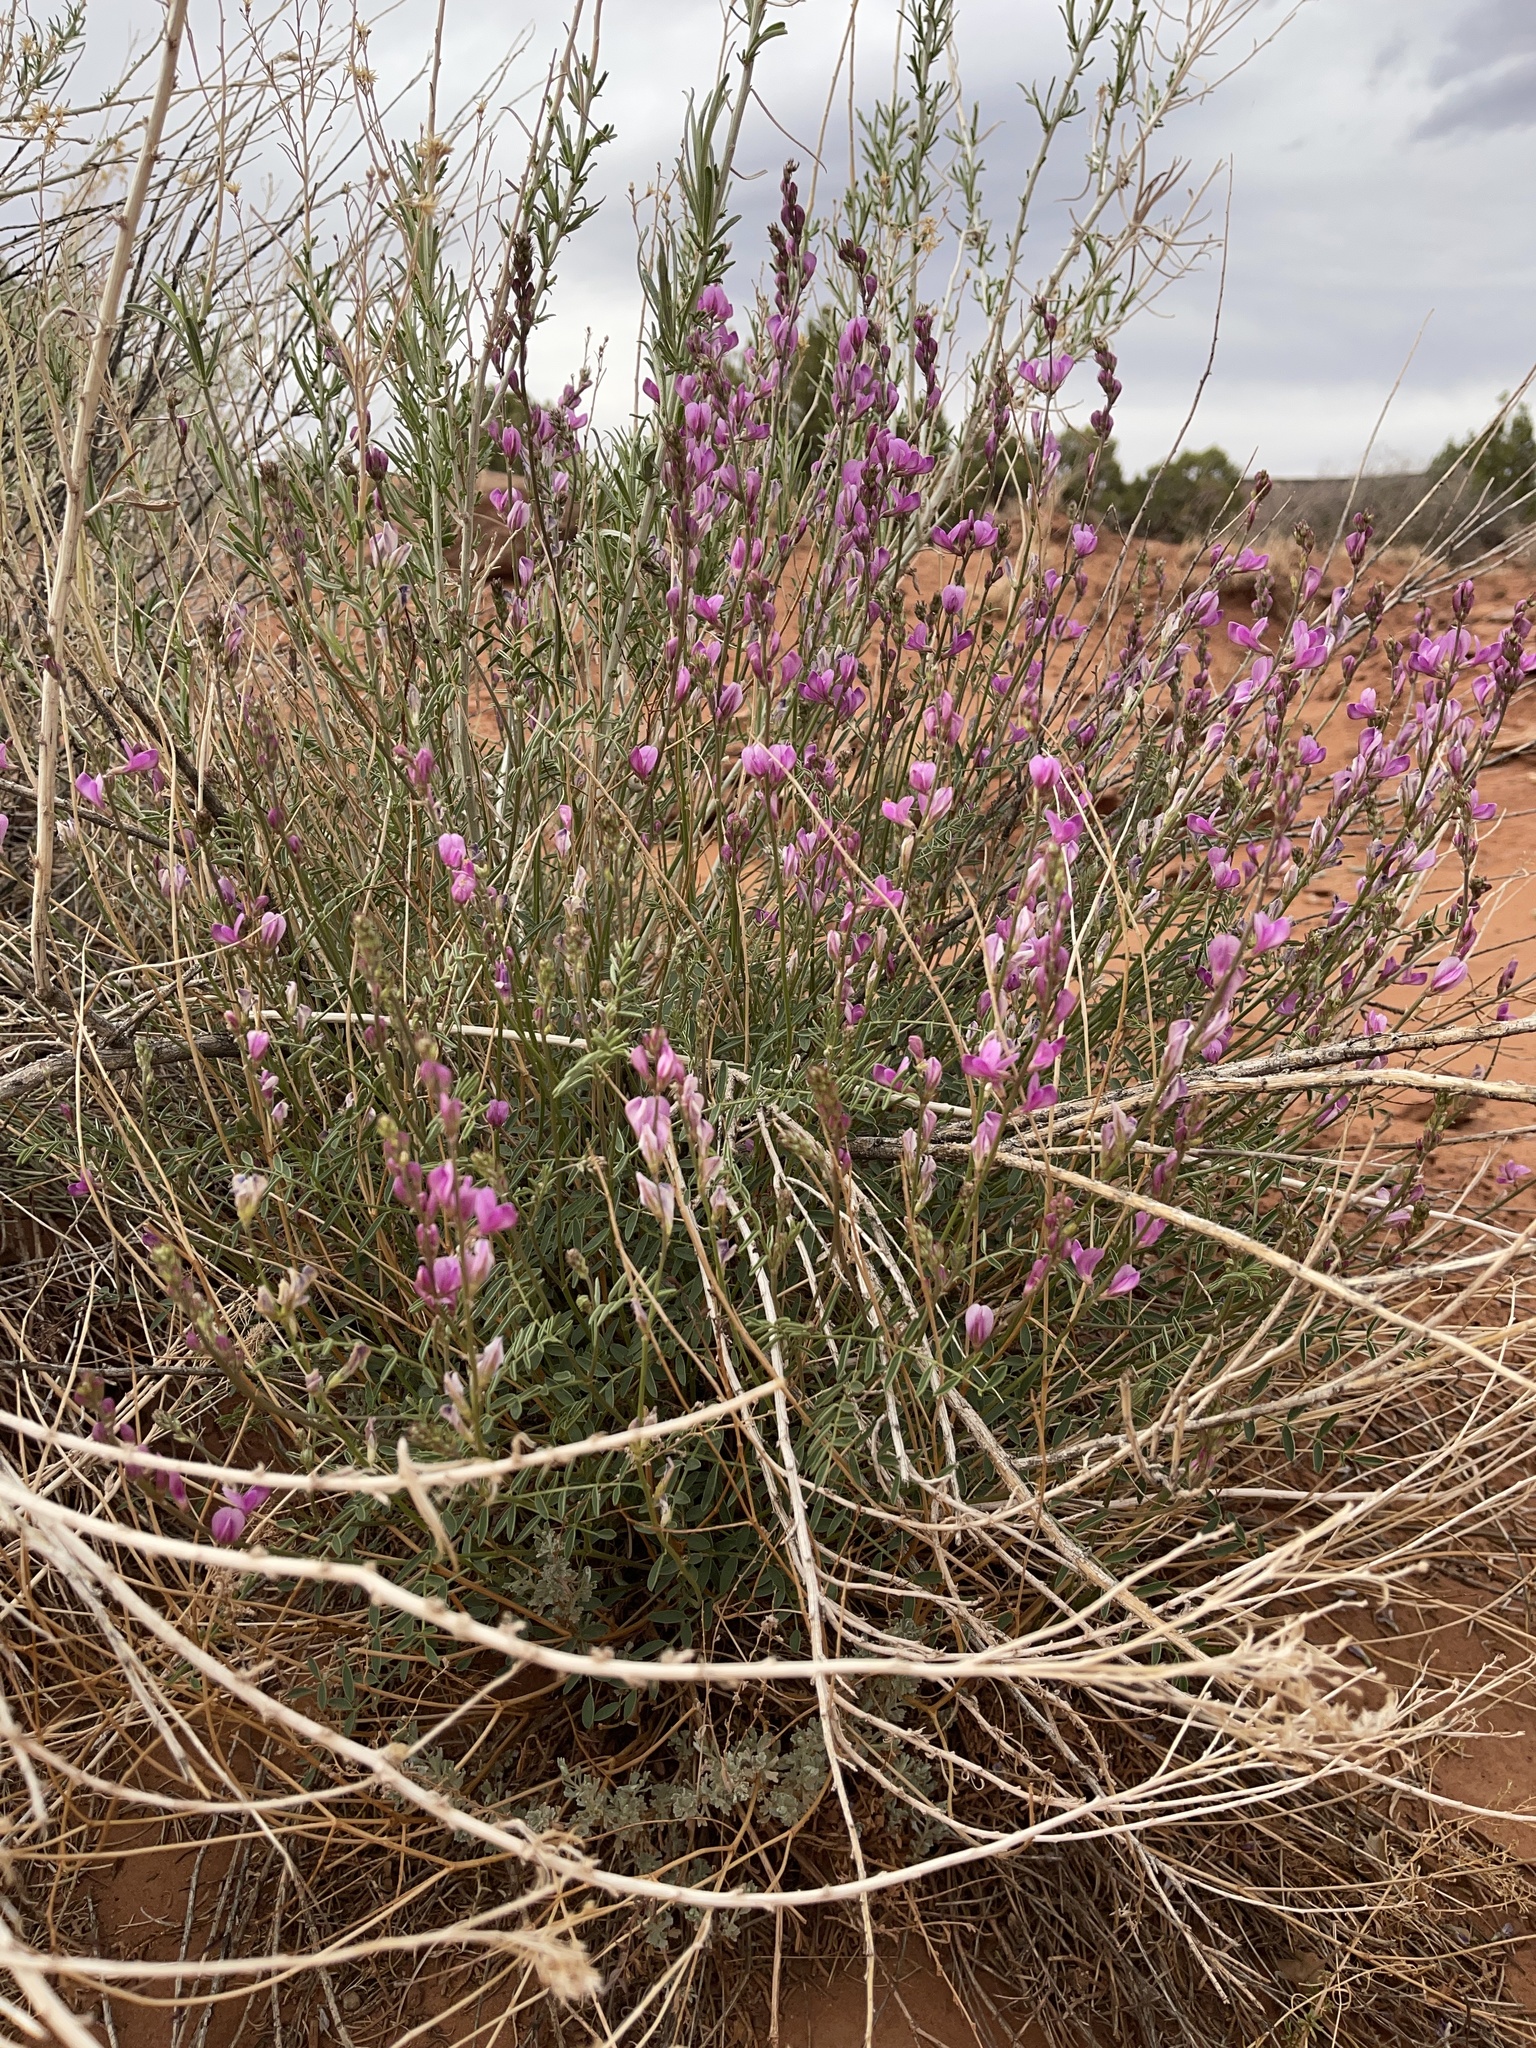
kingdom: Plantae
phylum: Tracheophyta
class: Magnoliopsida
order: Fabales
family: Fabaceae
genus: Hedysarum
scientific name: Hedysarum boreale
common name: Northern sweet-vetch
